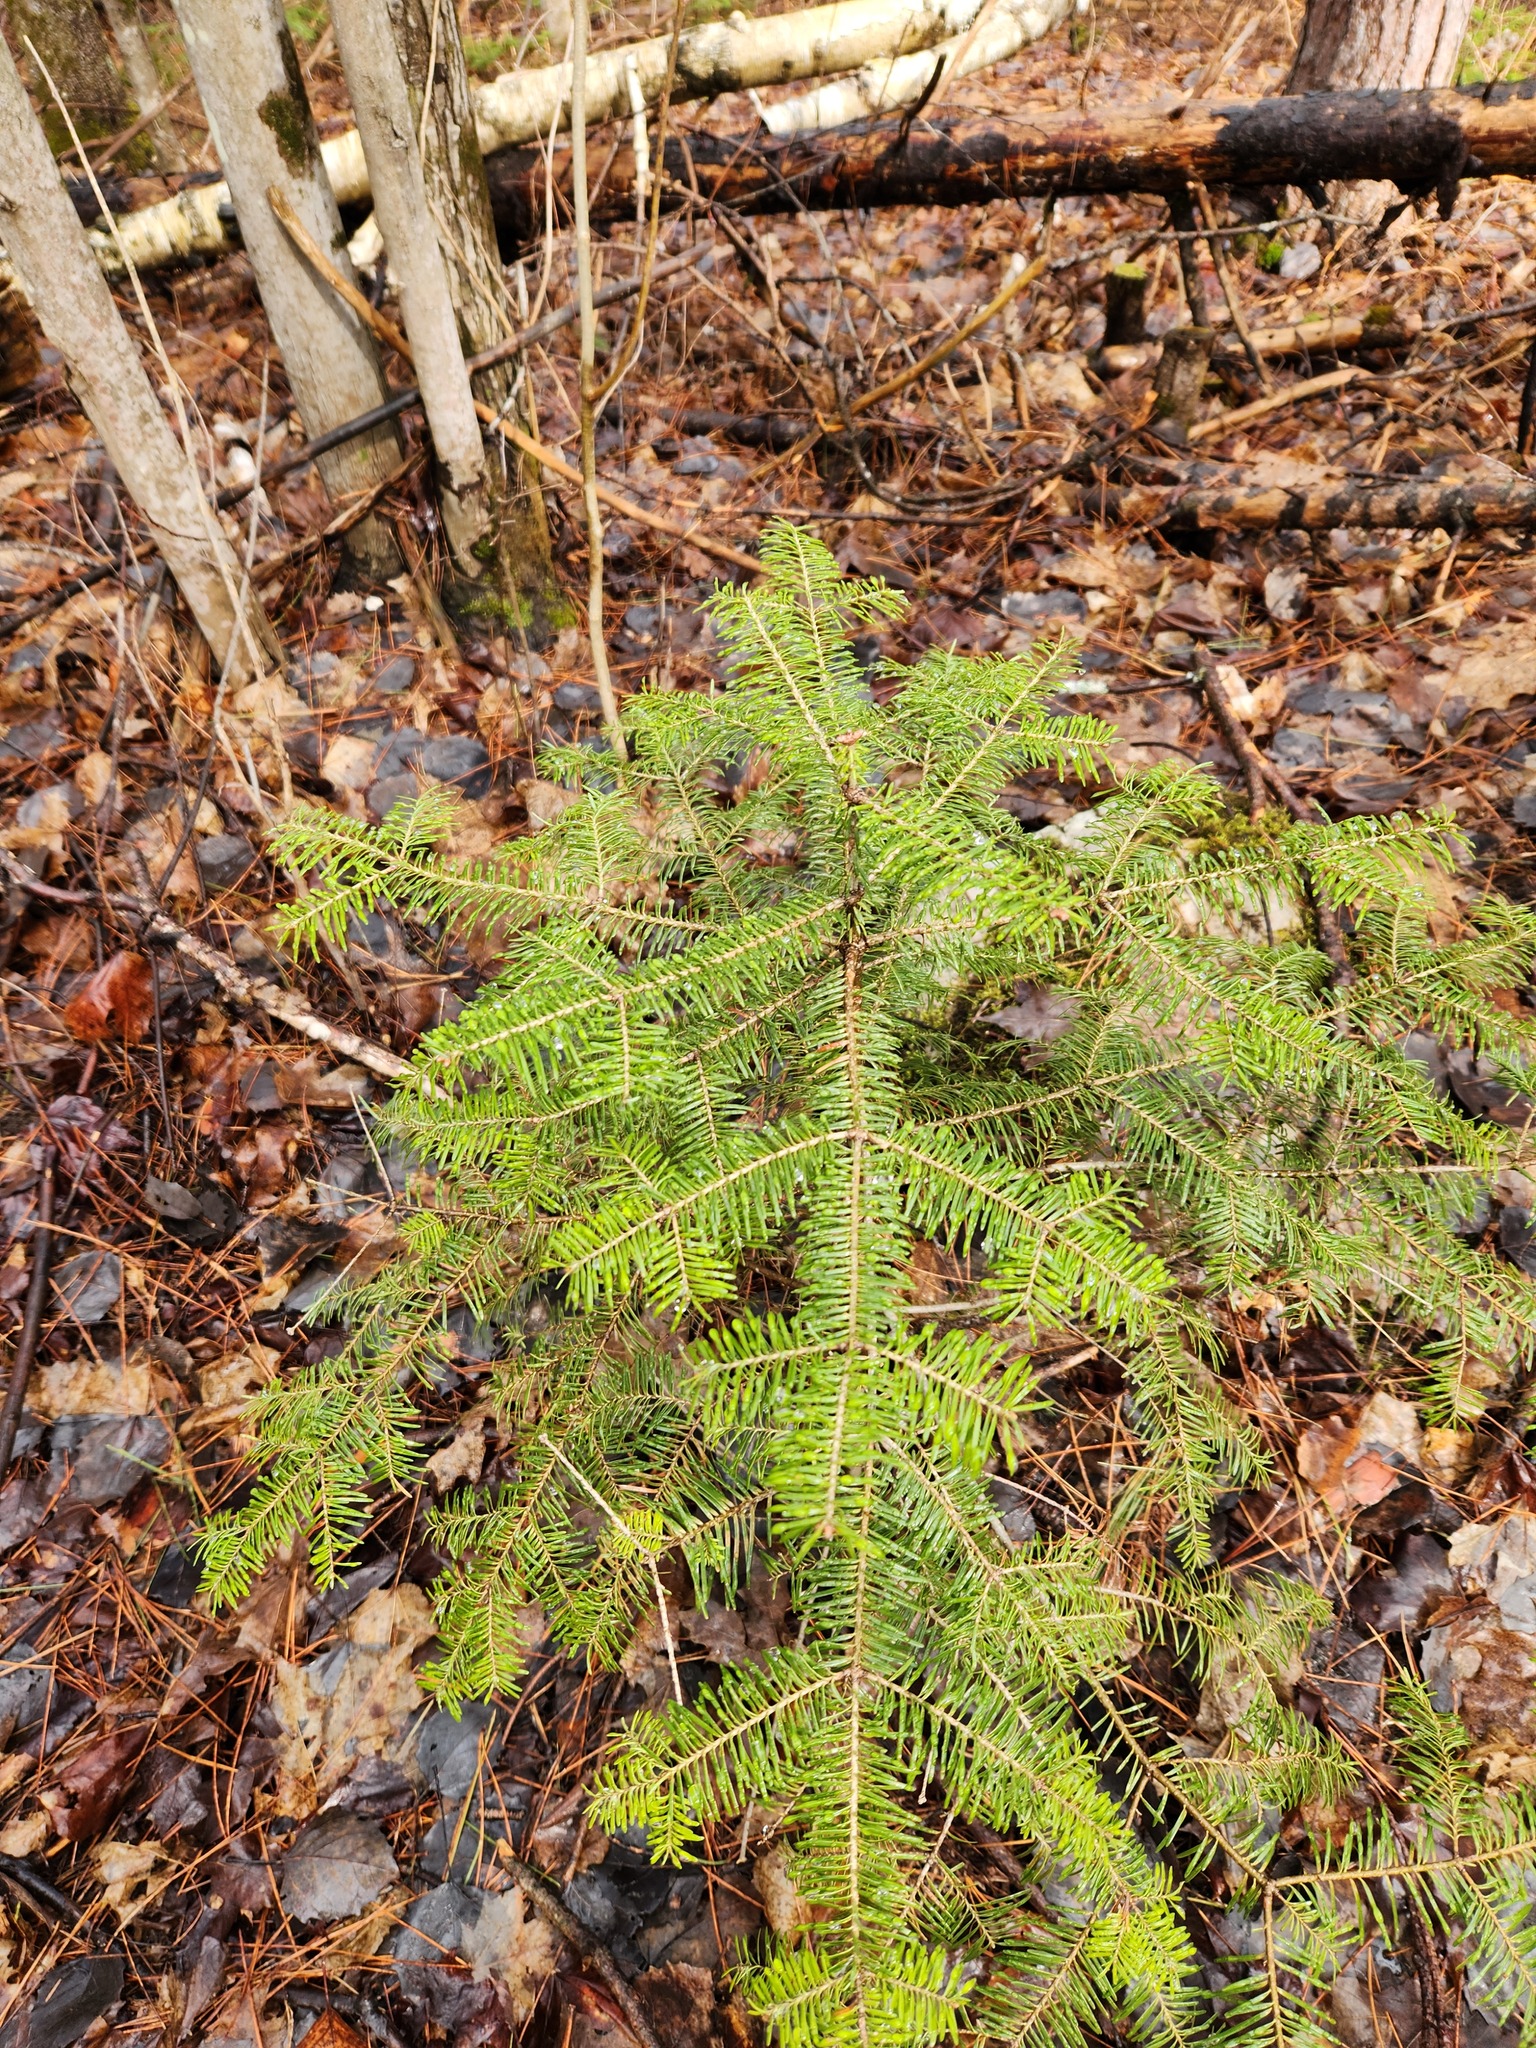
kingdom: Plantae
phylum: Tracheophyta
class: Pinopsida
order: Pinales
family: Pinaceae
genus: Abies
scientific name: Abies balsamea
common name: Balsam fir
